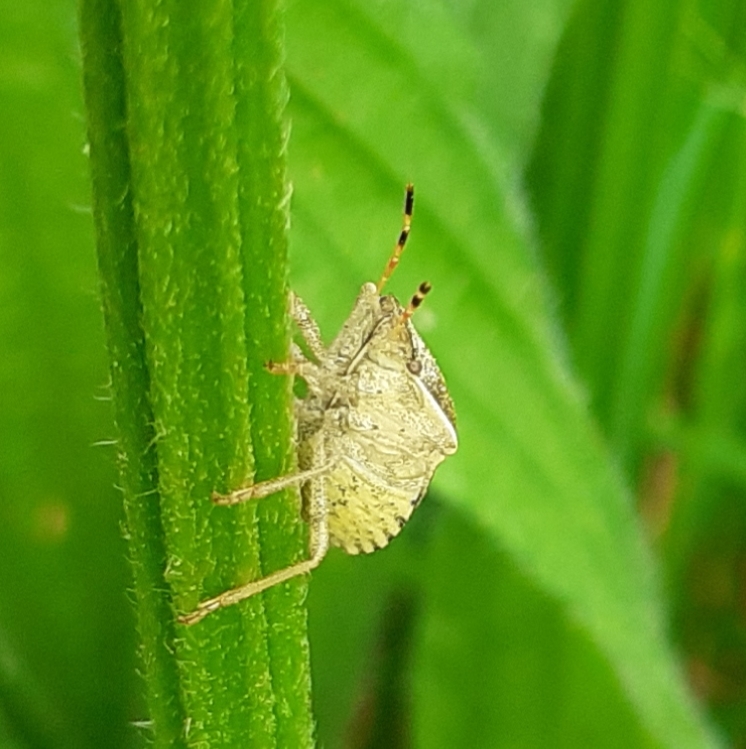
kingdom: Animalia
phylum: Arthropoda
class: Insecta
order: Hemiptera
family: Pentatomidae
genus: Holcostethus
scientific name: Holcostethus strictus
